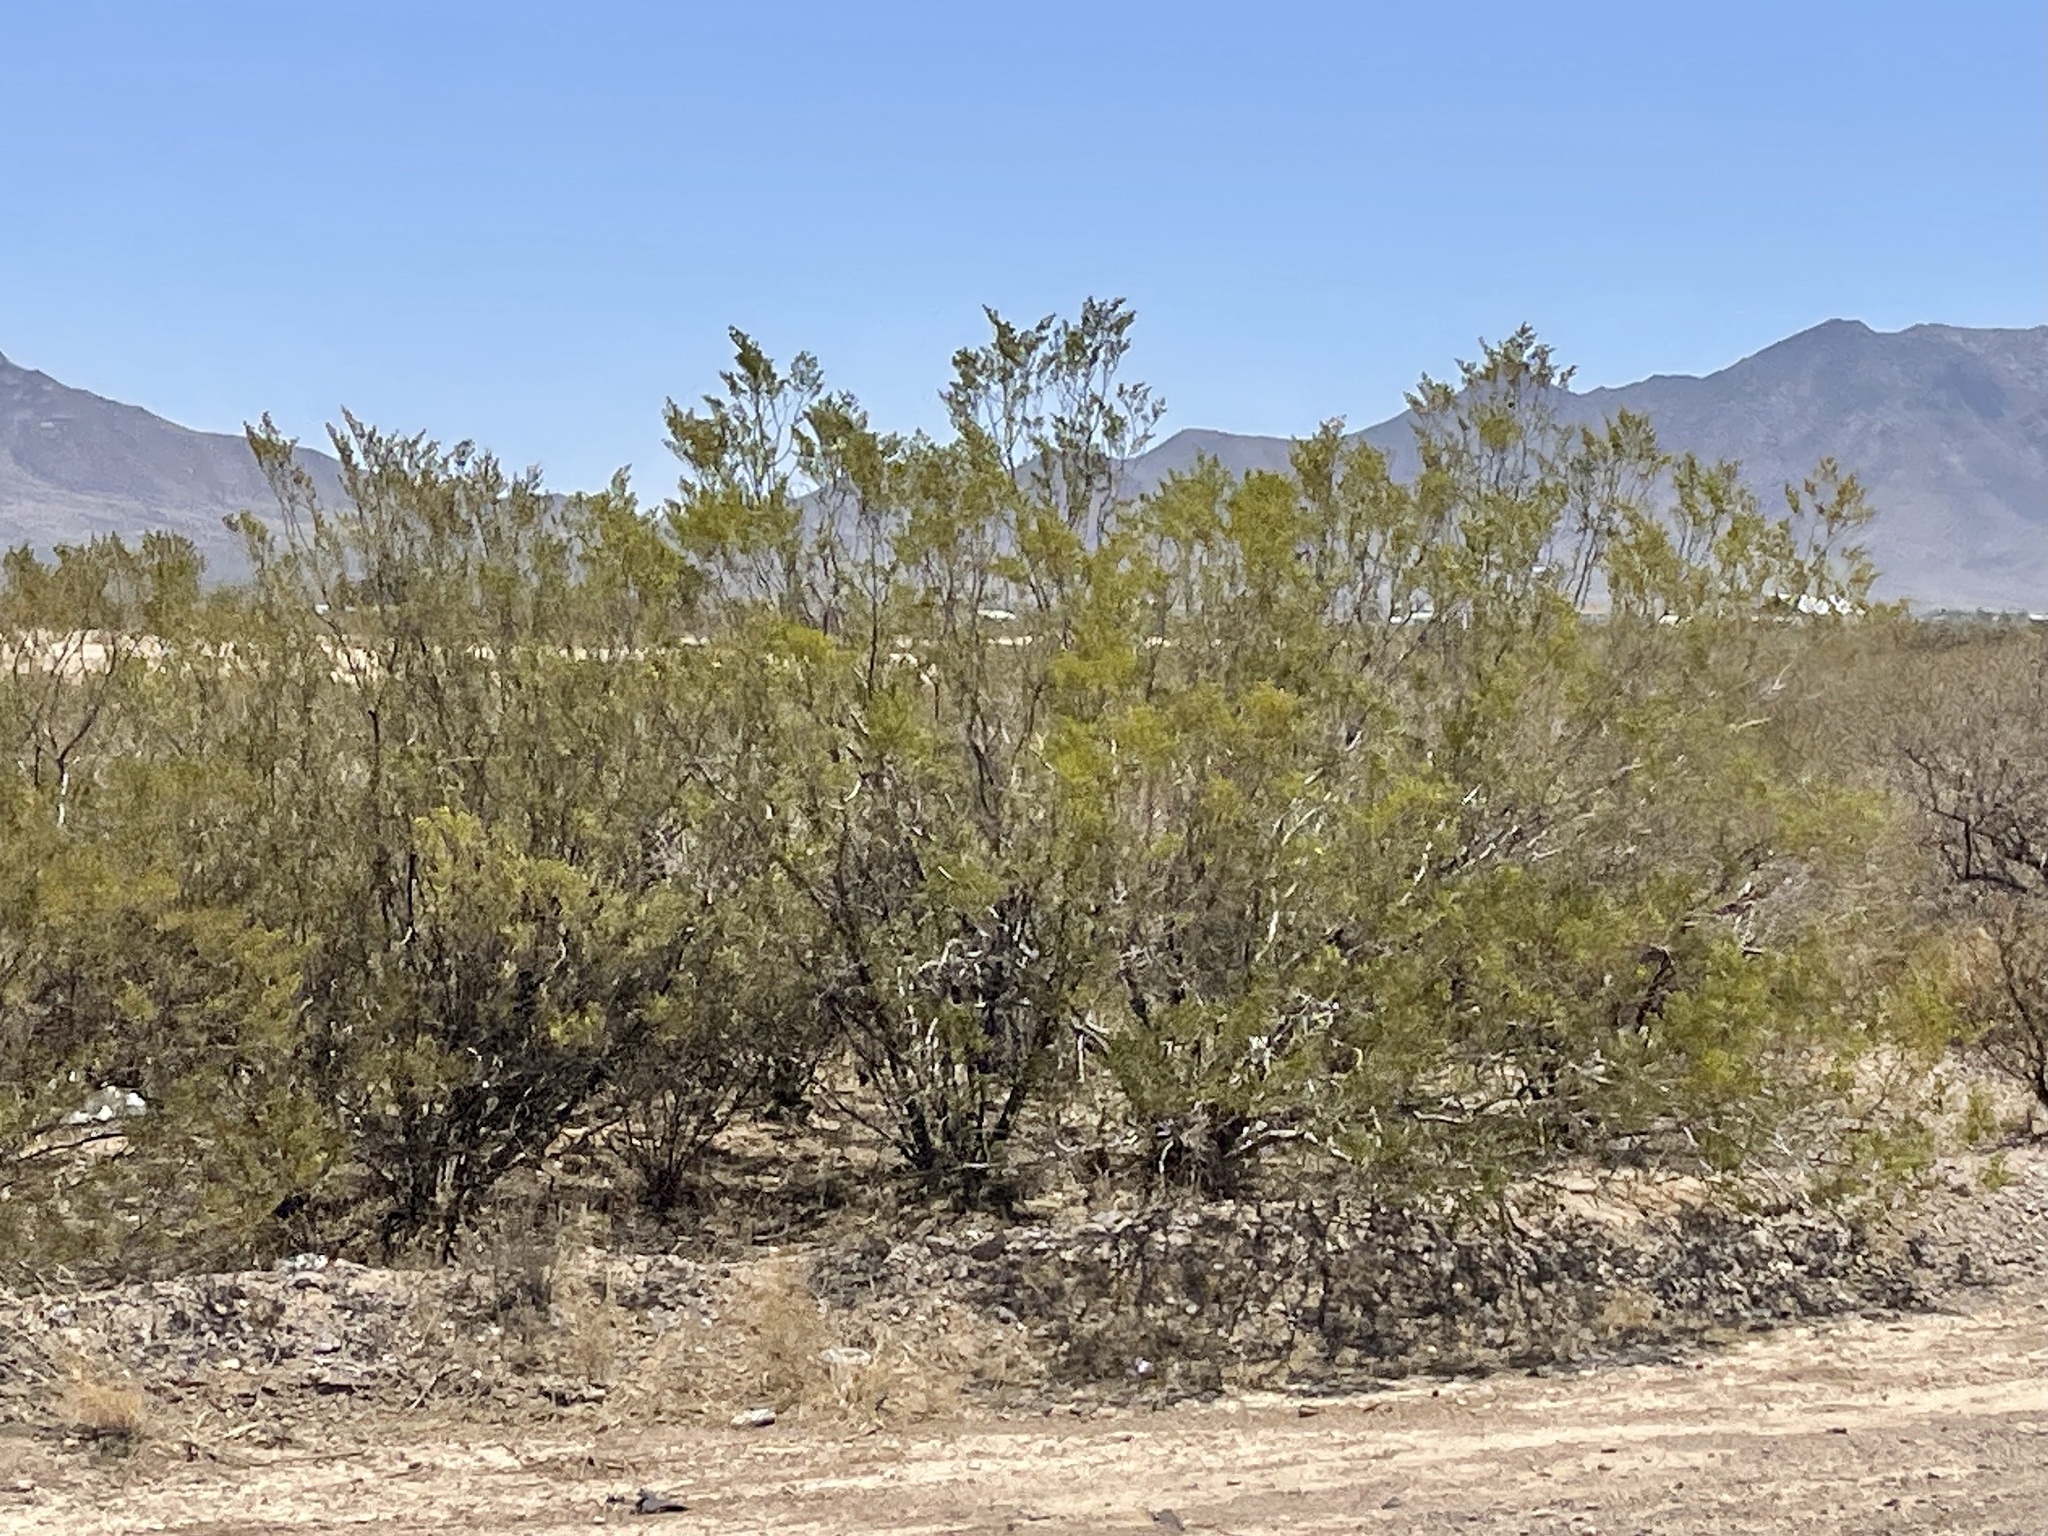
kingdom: Plantae
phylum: Tracheophyta
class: Magnoliopsida
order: Zygophyllales
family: Zygophyllaceae
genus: Larrea
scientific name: Larrea tridentata
